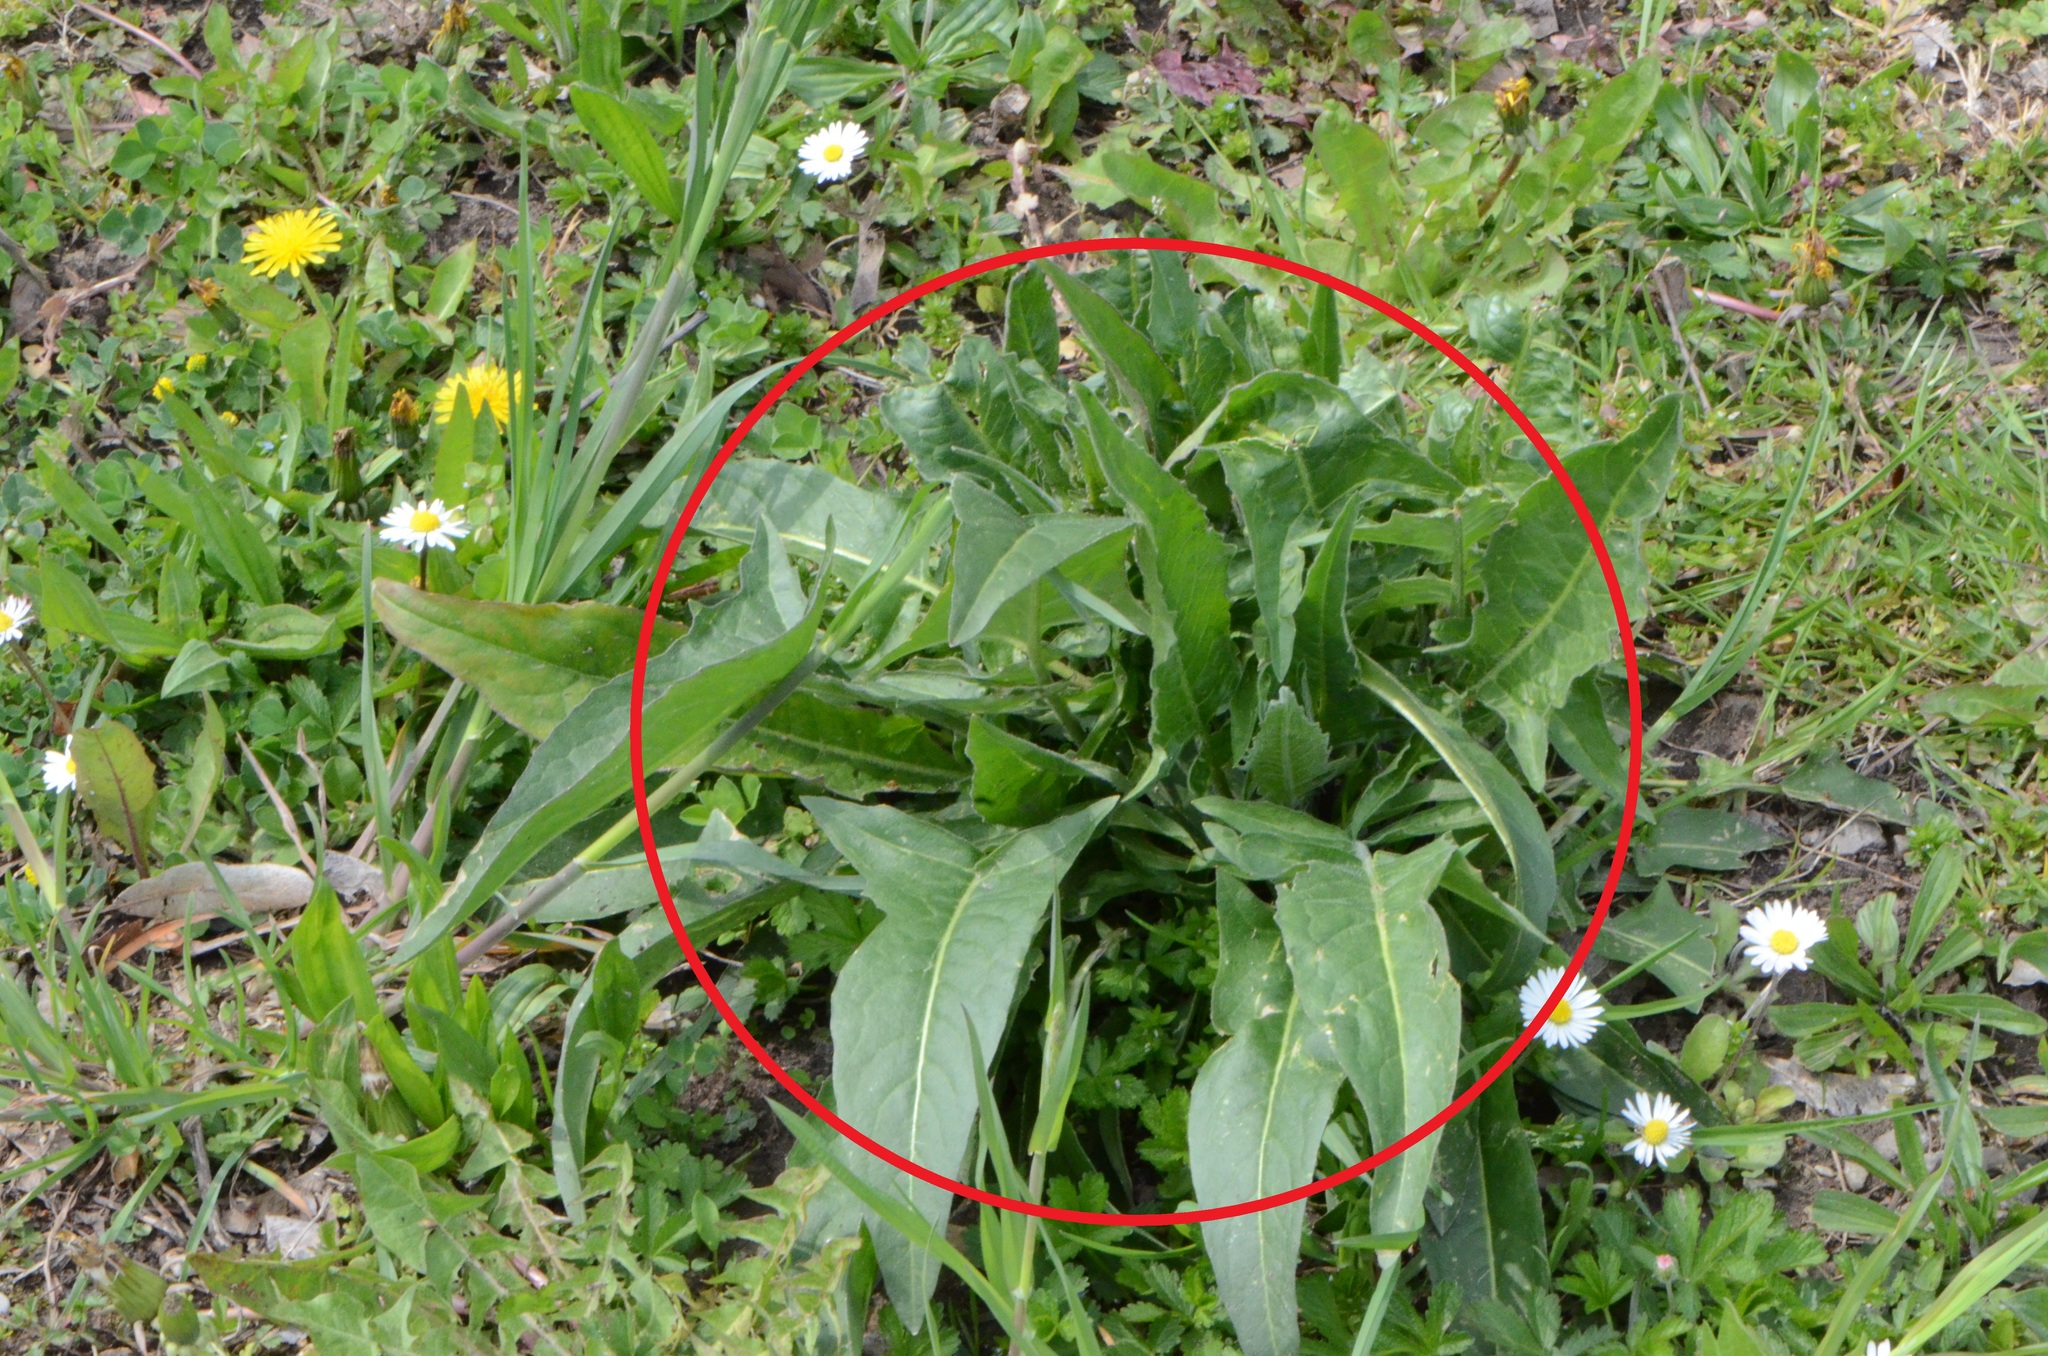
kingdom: Plantae
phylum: Tracheophyta
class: Magnoliopsida
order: Brassicales
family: Brassicaceae
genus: Bunias
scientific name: Bunias orientalis
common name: Warty-cabbage
